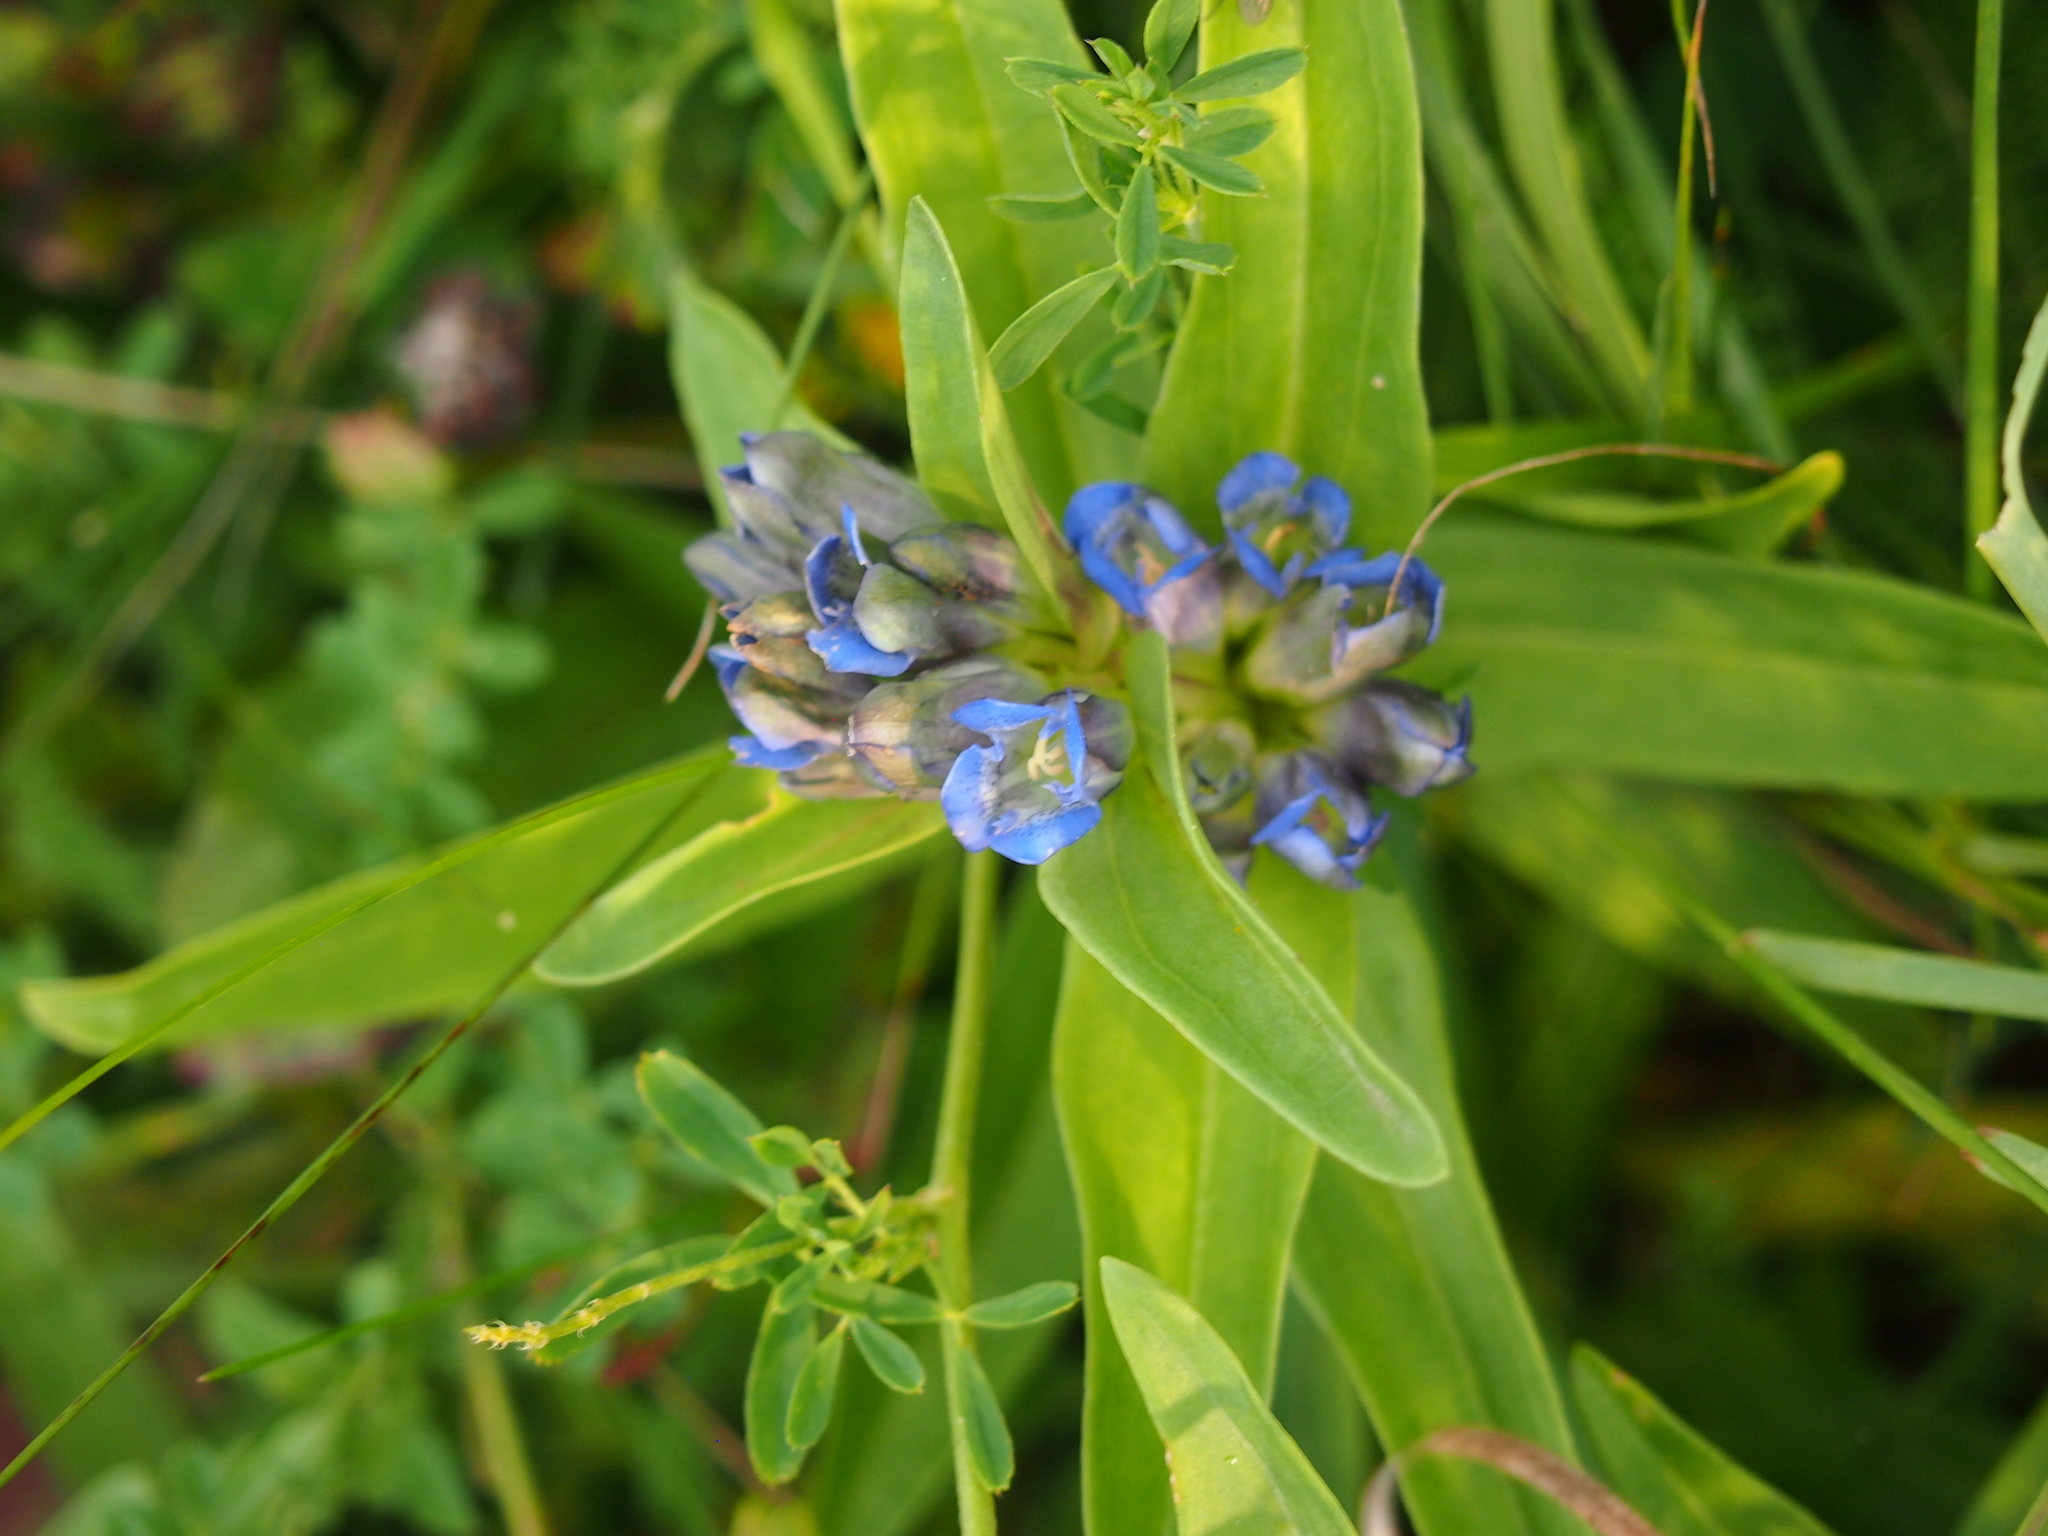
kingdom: Plantae
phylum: Tracheophyta
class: Magnoliopsida
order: Gentianales
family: Gentianaceae
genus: Gentiana
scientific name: Gentiana cruciata
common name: Cross gentian
